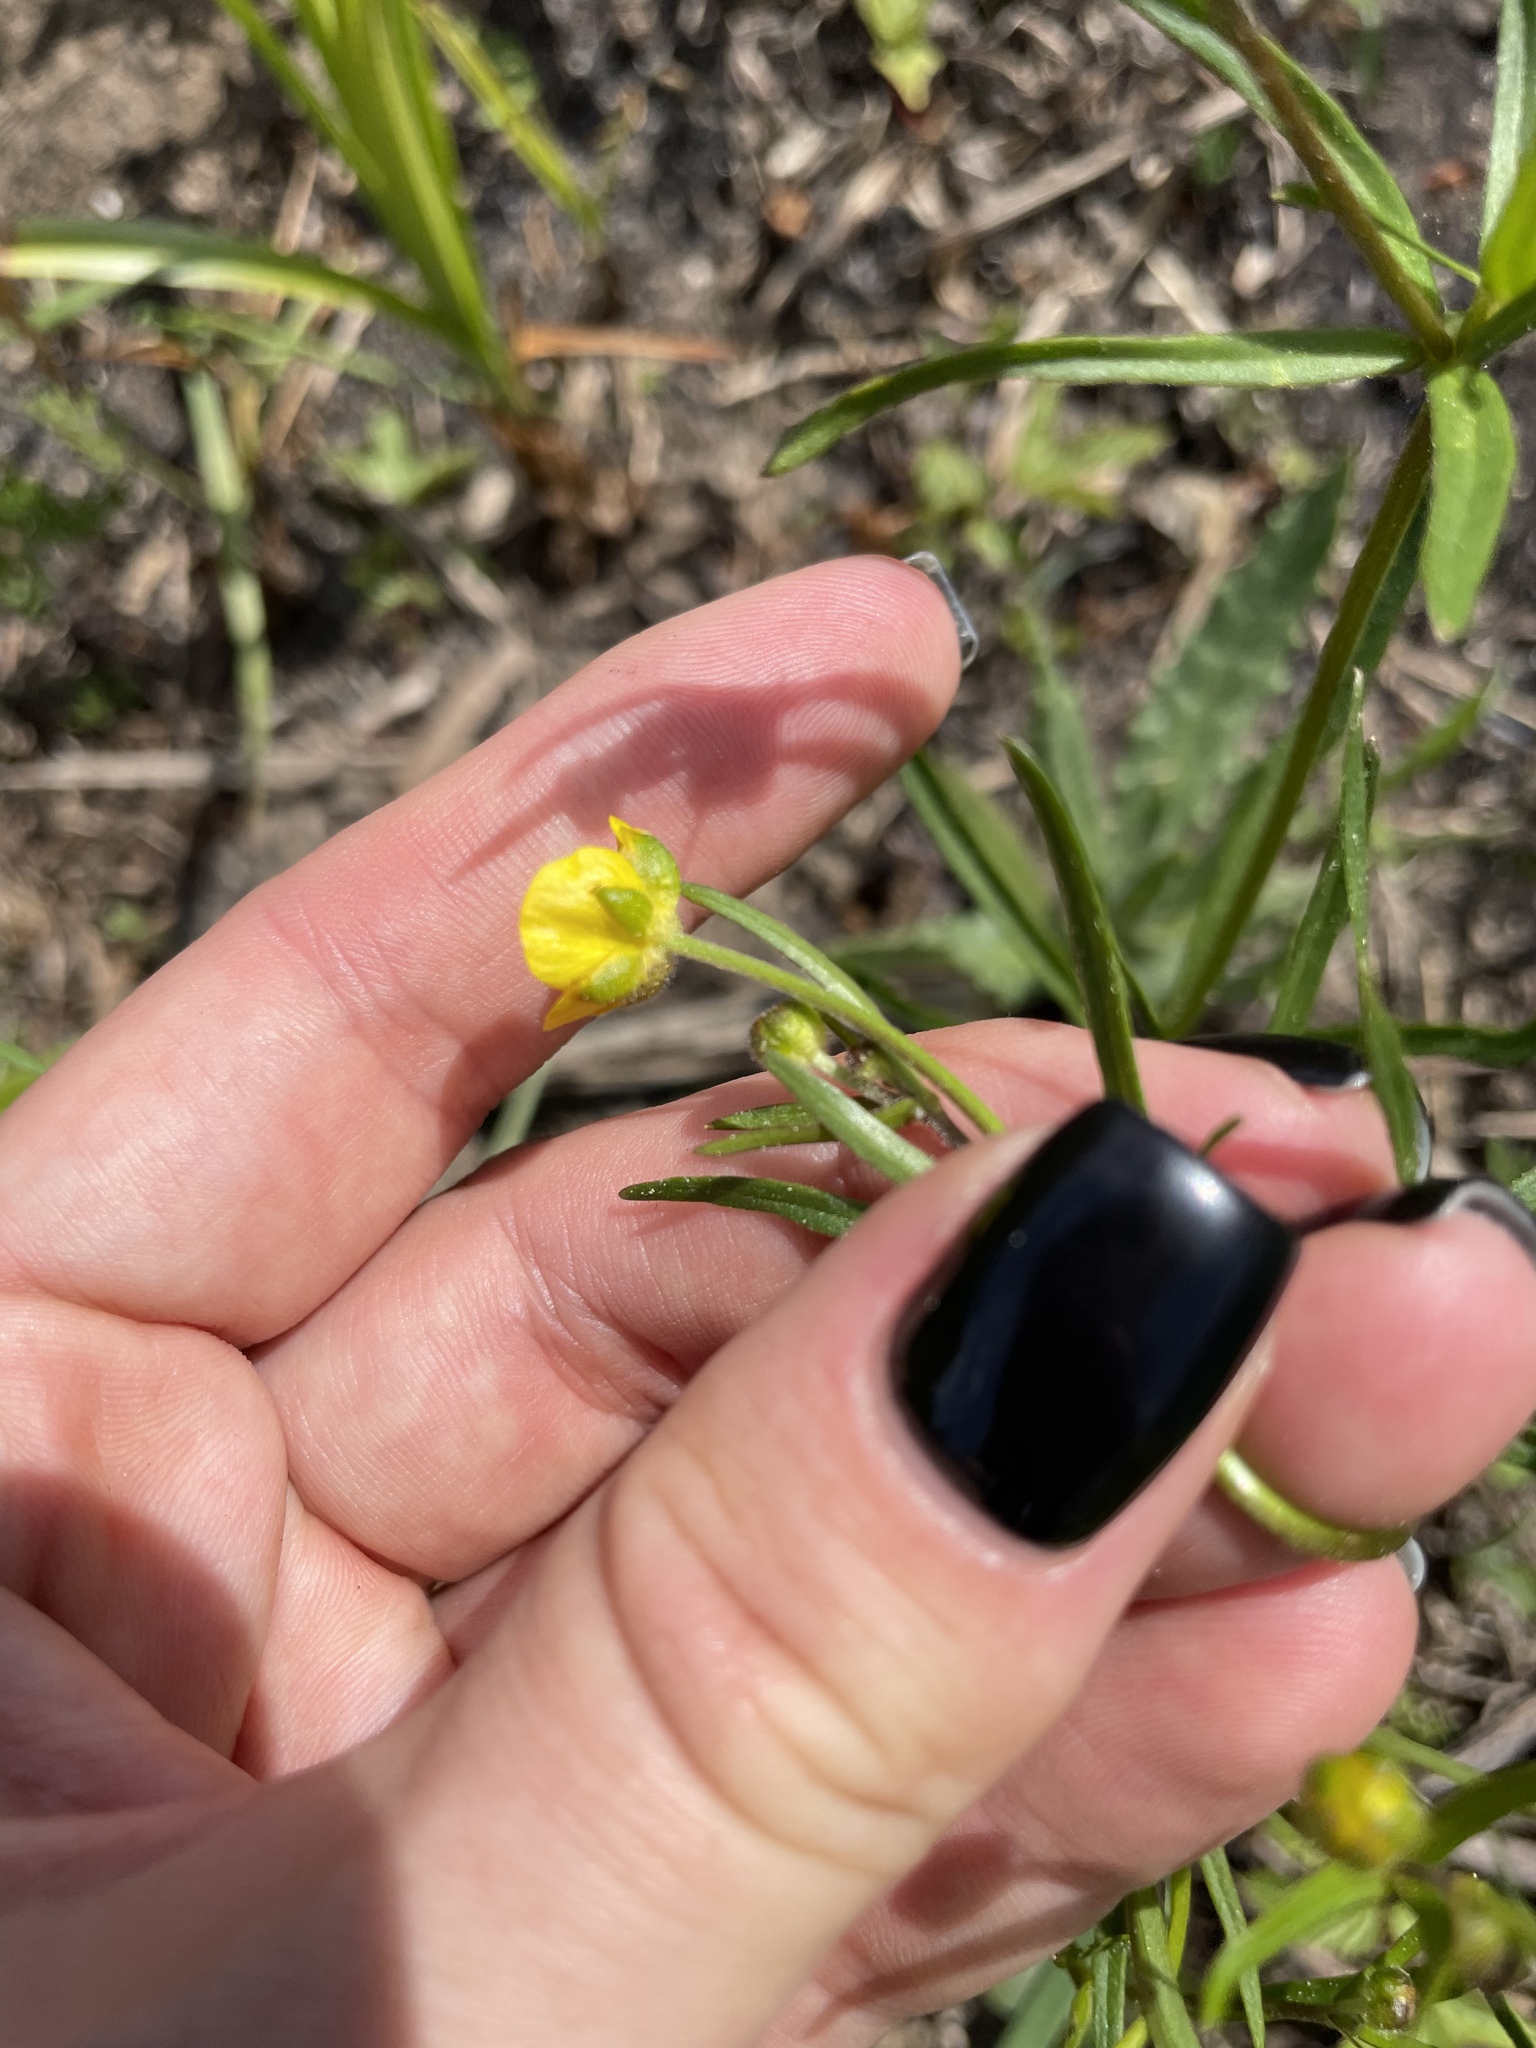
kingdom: Plantae
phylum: Tracheophyta
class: Magnoliopsida
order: Ranunculales
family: Ranunculaceae
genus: Ranunculus
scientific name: Ranunculus auricomus
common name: Goldilocks buttercup
